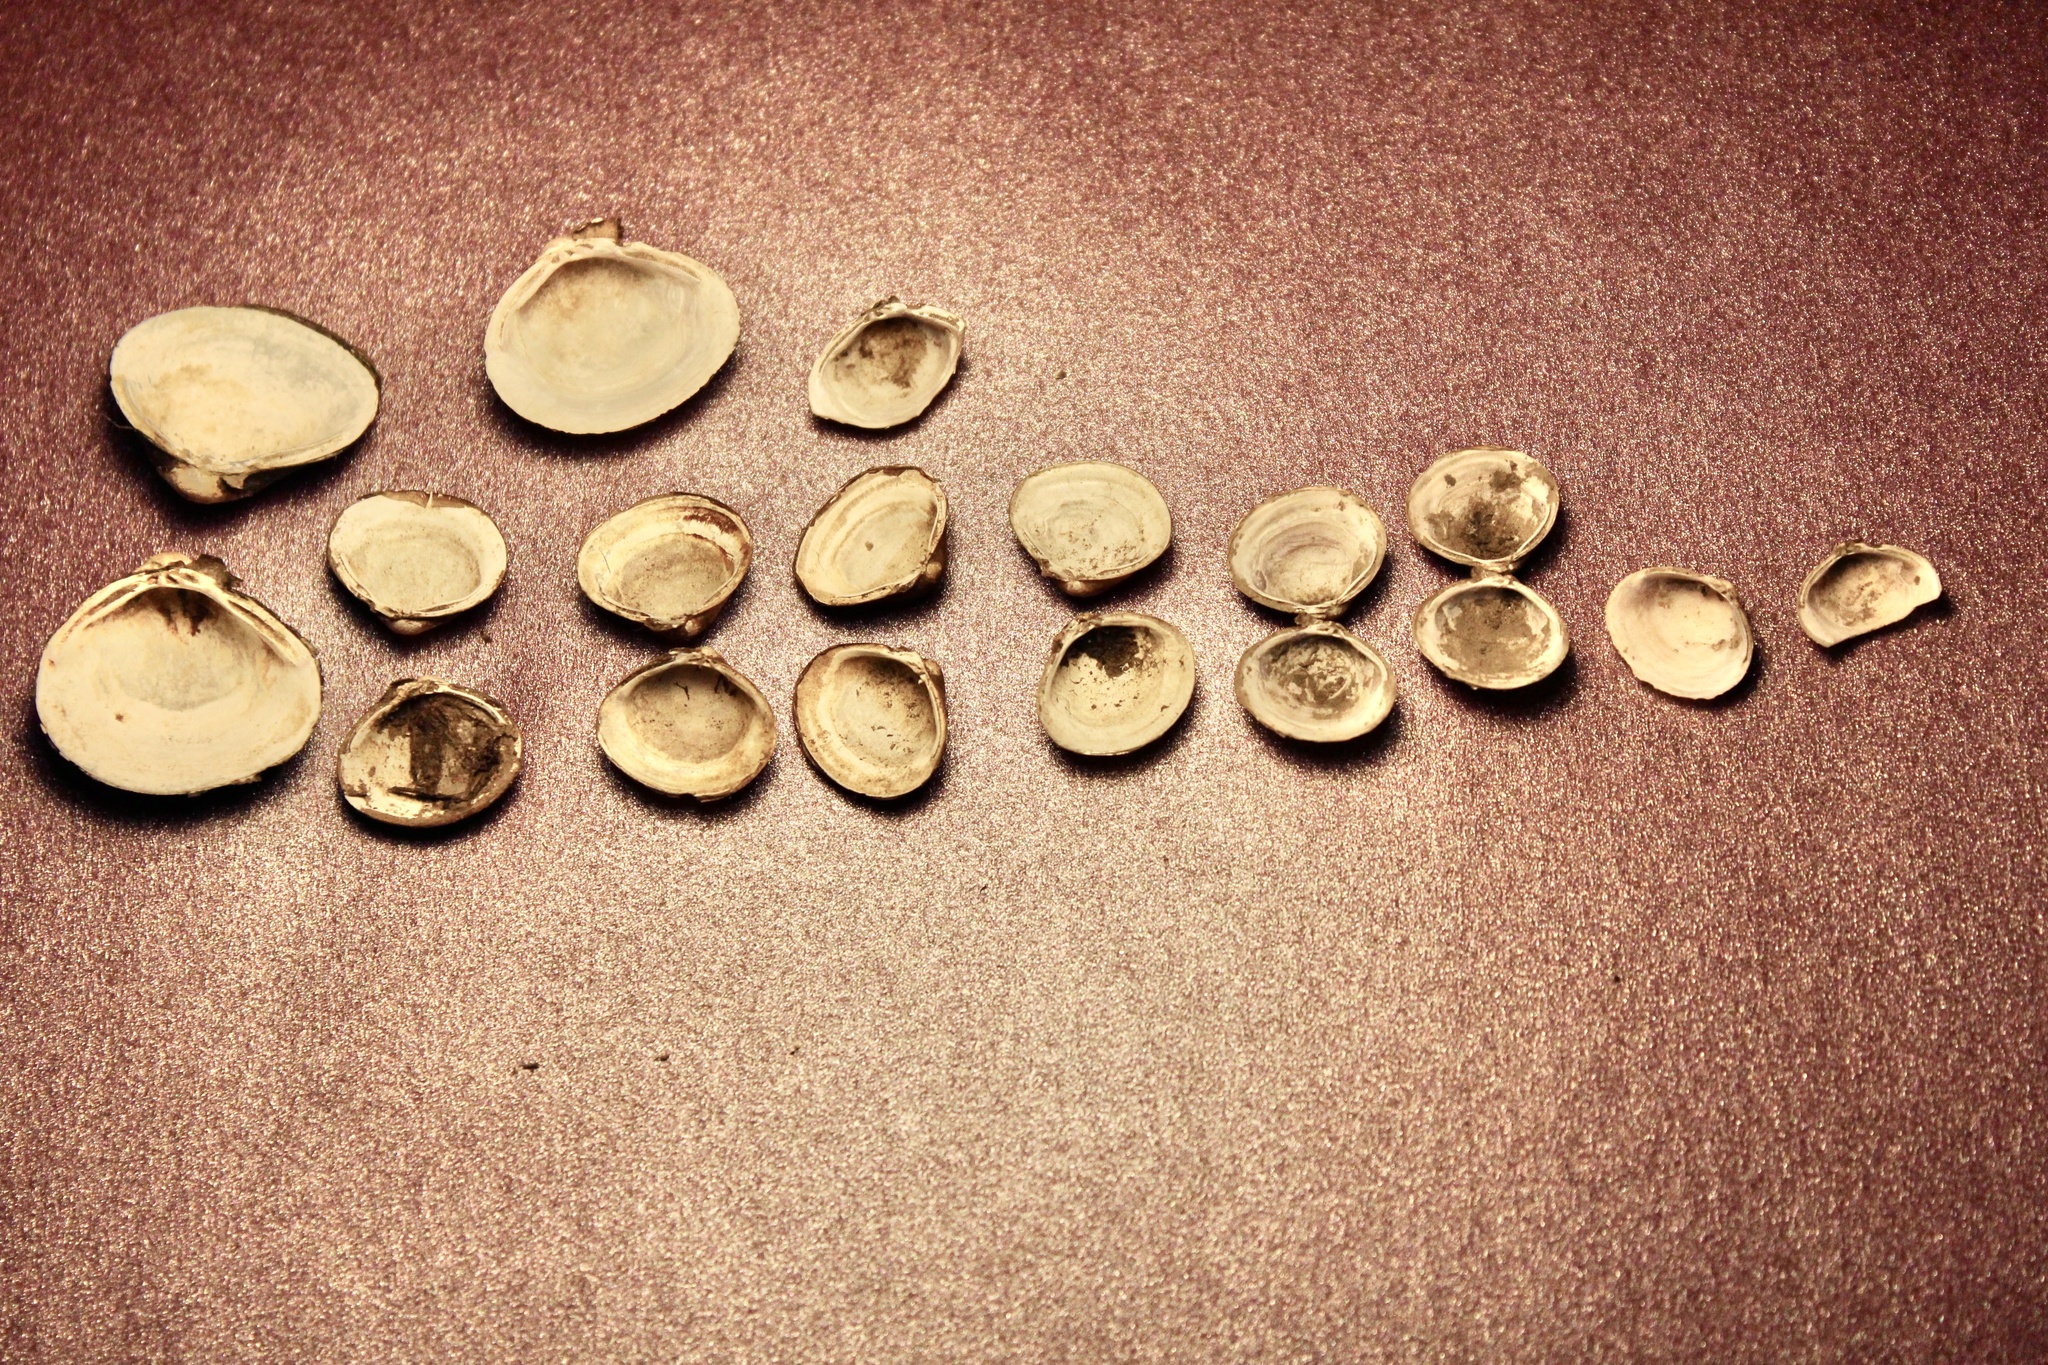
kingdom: Animalia
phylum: Mollusca
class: Bivalvia
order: Venerida
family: Cyrenidae
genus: Corbicula
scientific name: Corbicula fluminea
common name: Asian clam
